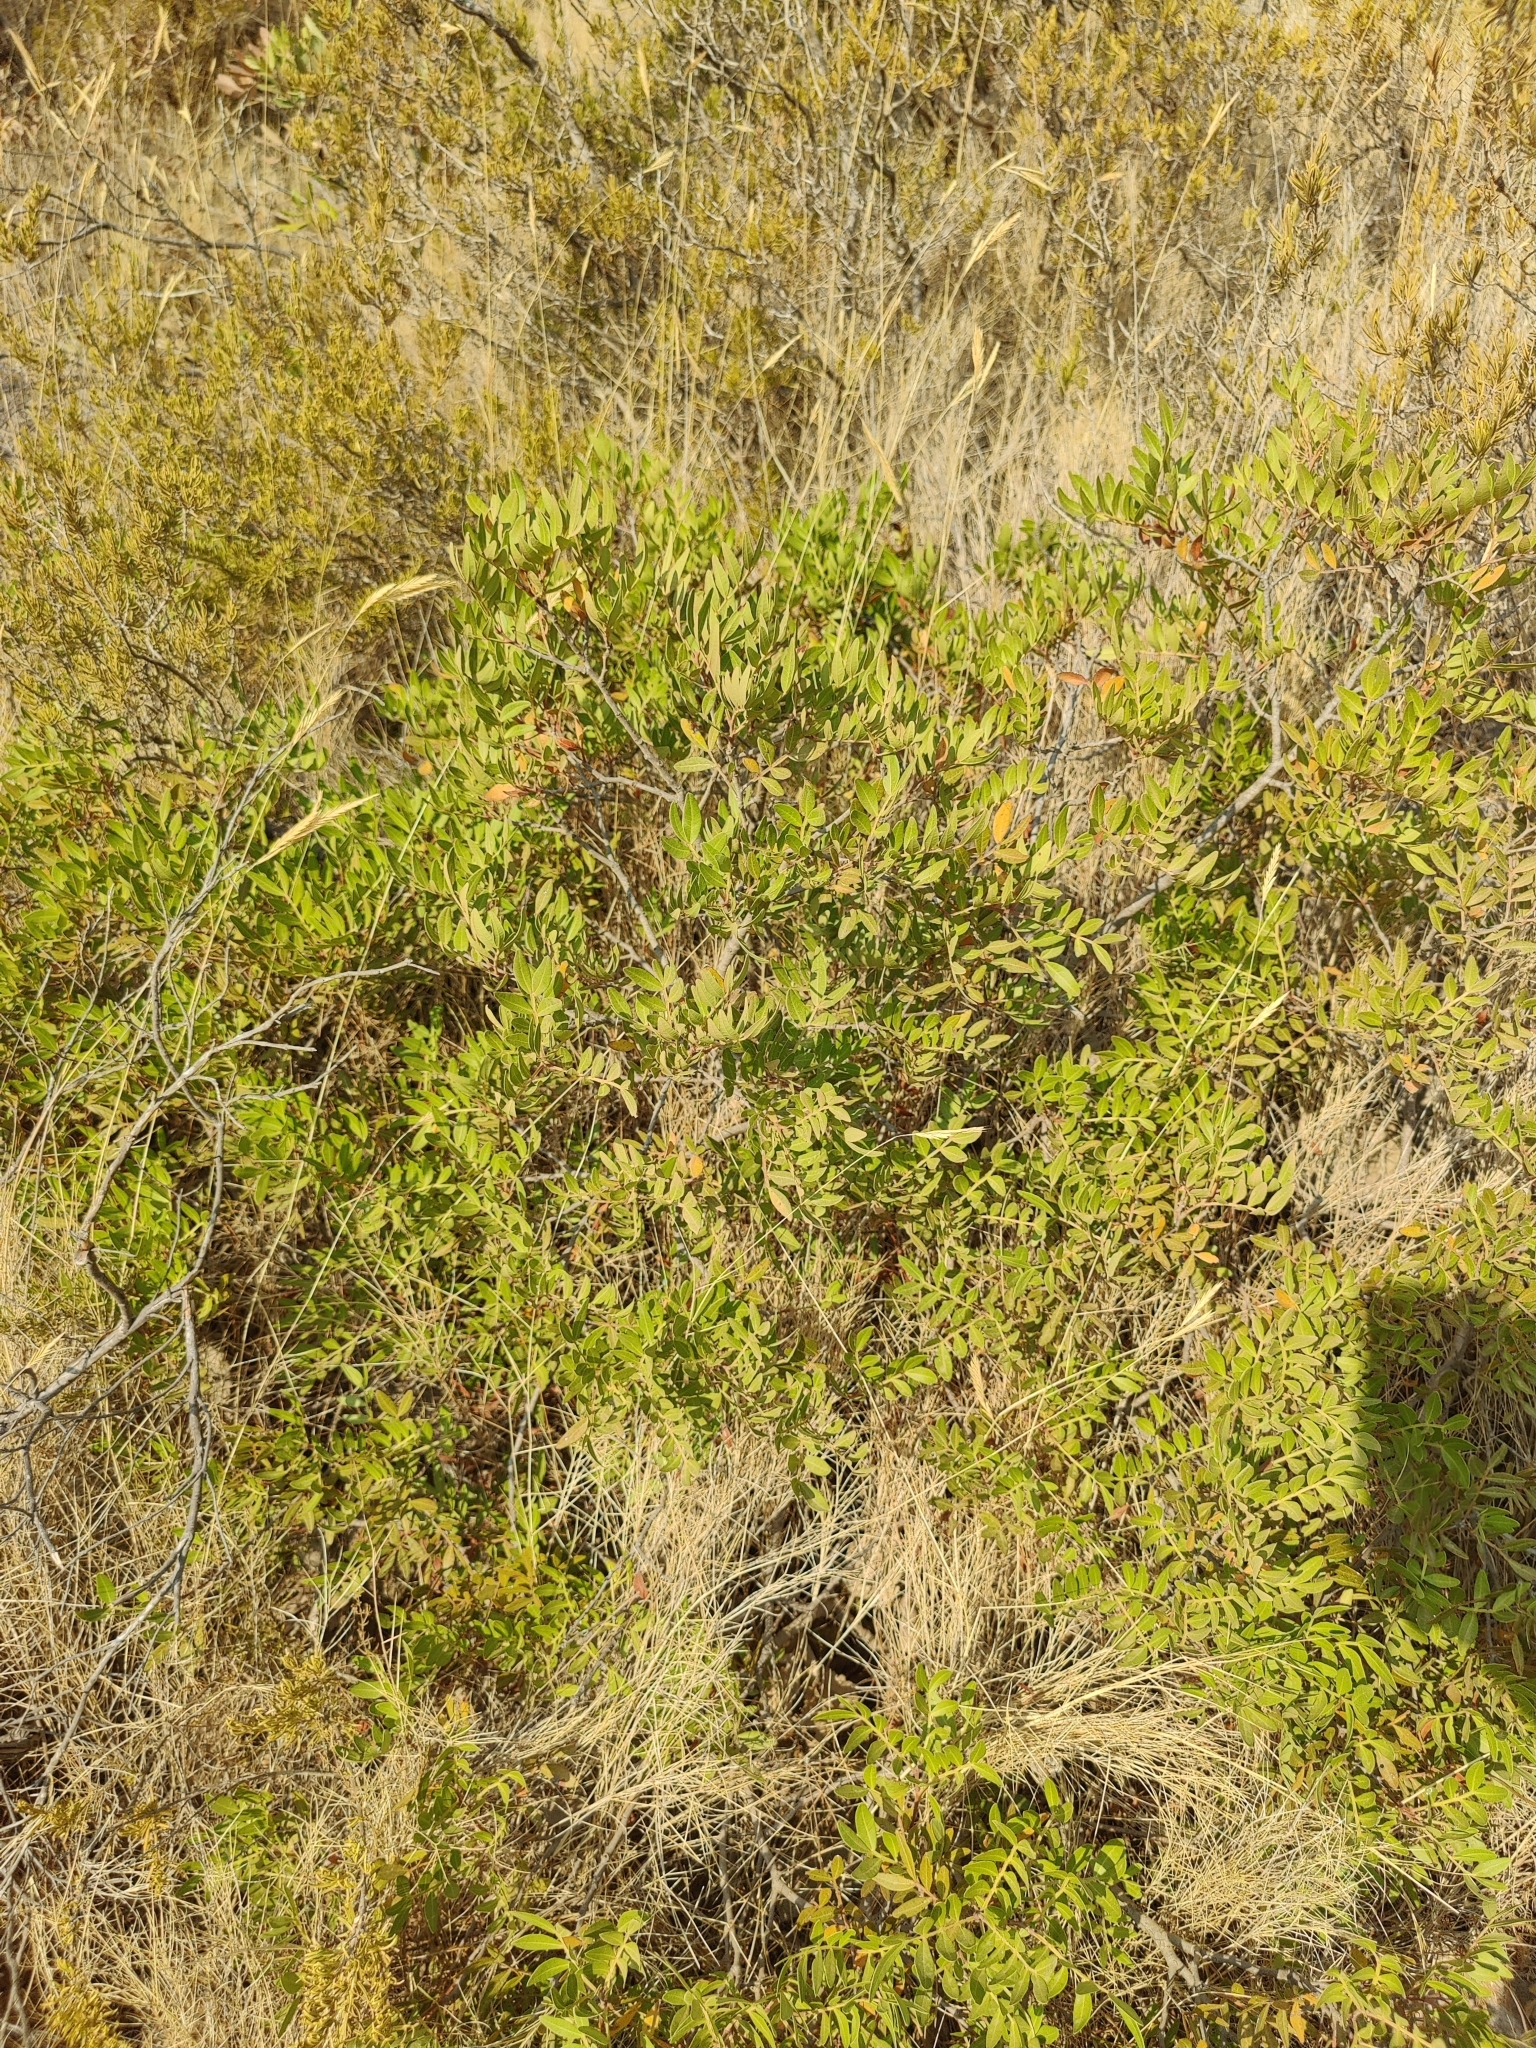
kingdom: Plantae
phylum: Tracheophyta
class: Magnoliopsida
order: Sapindales
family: Anacardiaceae
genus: Pistacia
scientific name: Pistacia lentiscus
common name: Lentisk
